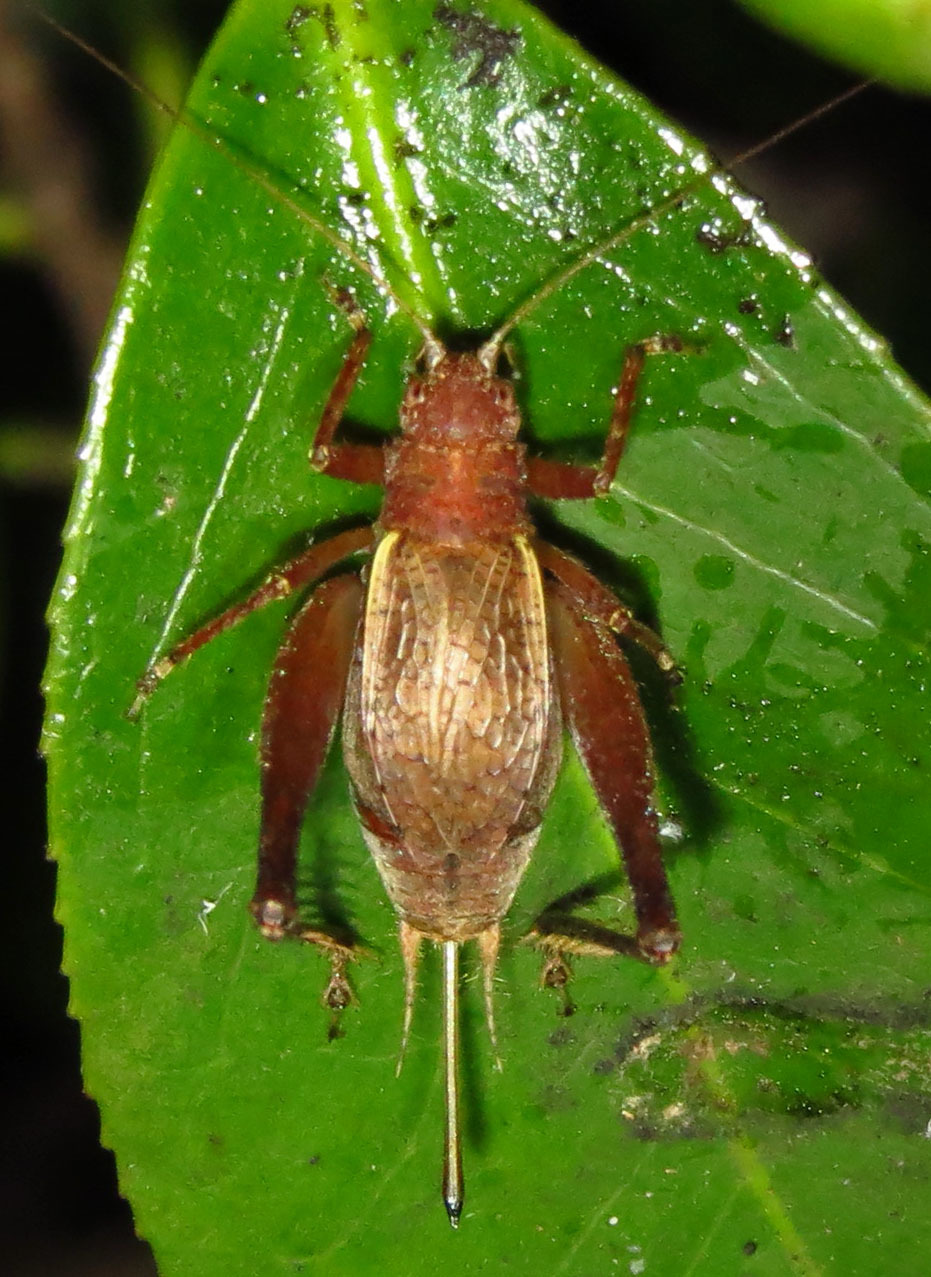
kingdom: Animalia
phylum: Arthropoda
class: Insecta
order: Orthoptera
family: Gryllidae
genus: Hapithus
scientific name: Hapithus agitator
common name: Restless bush cricket
